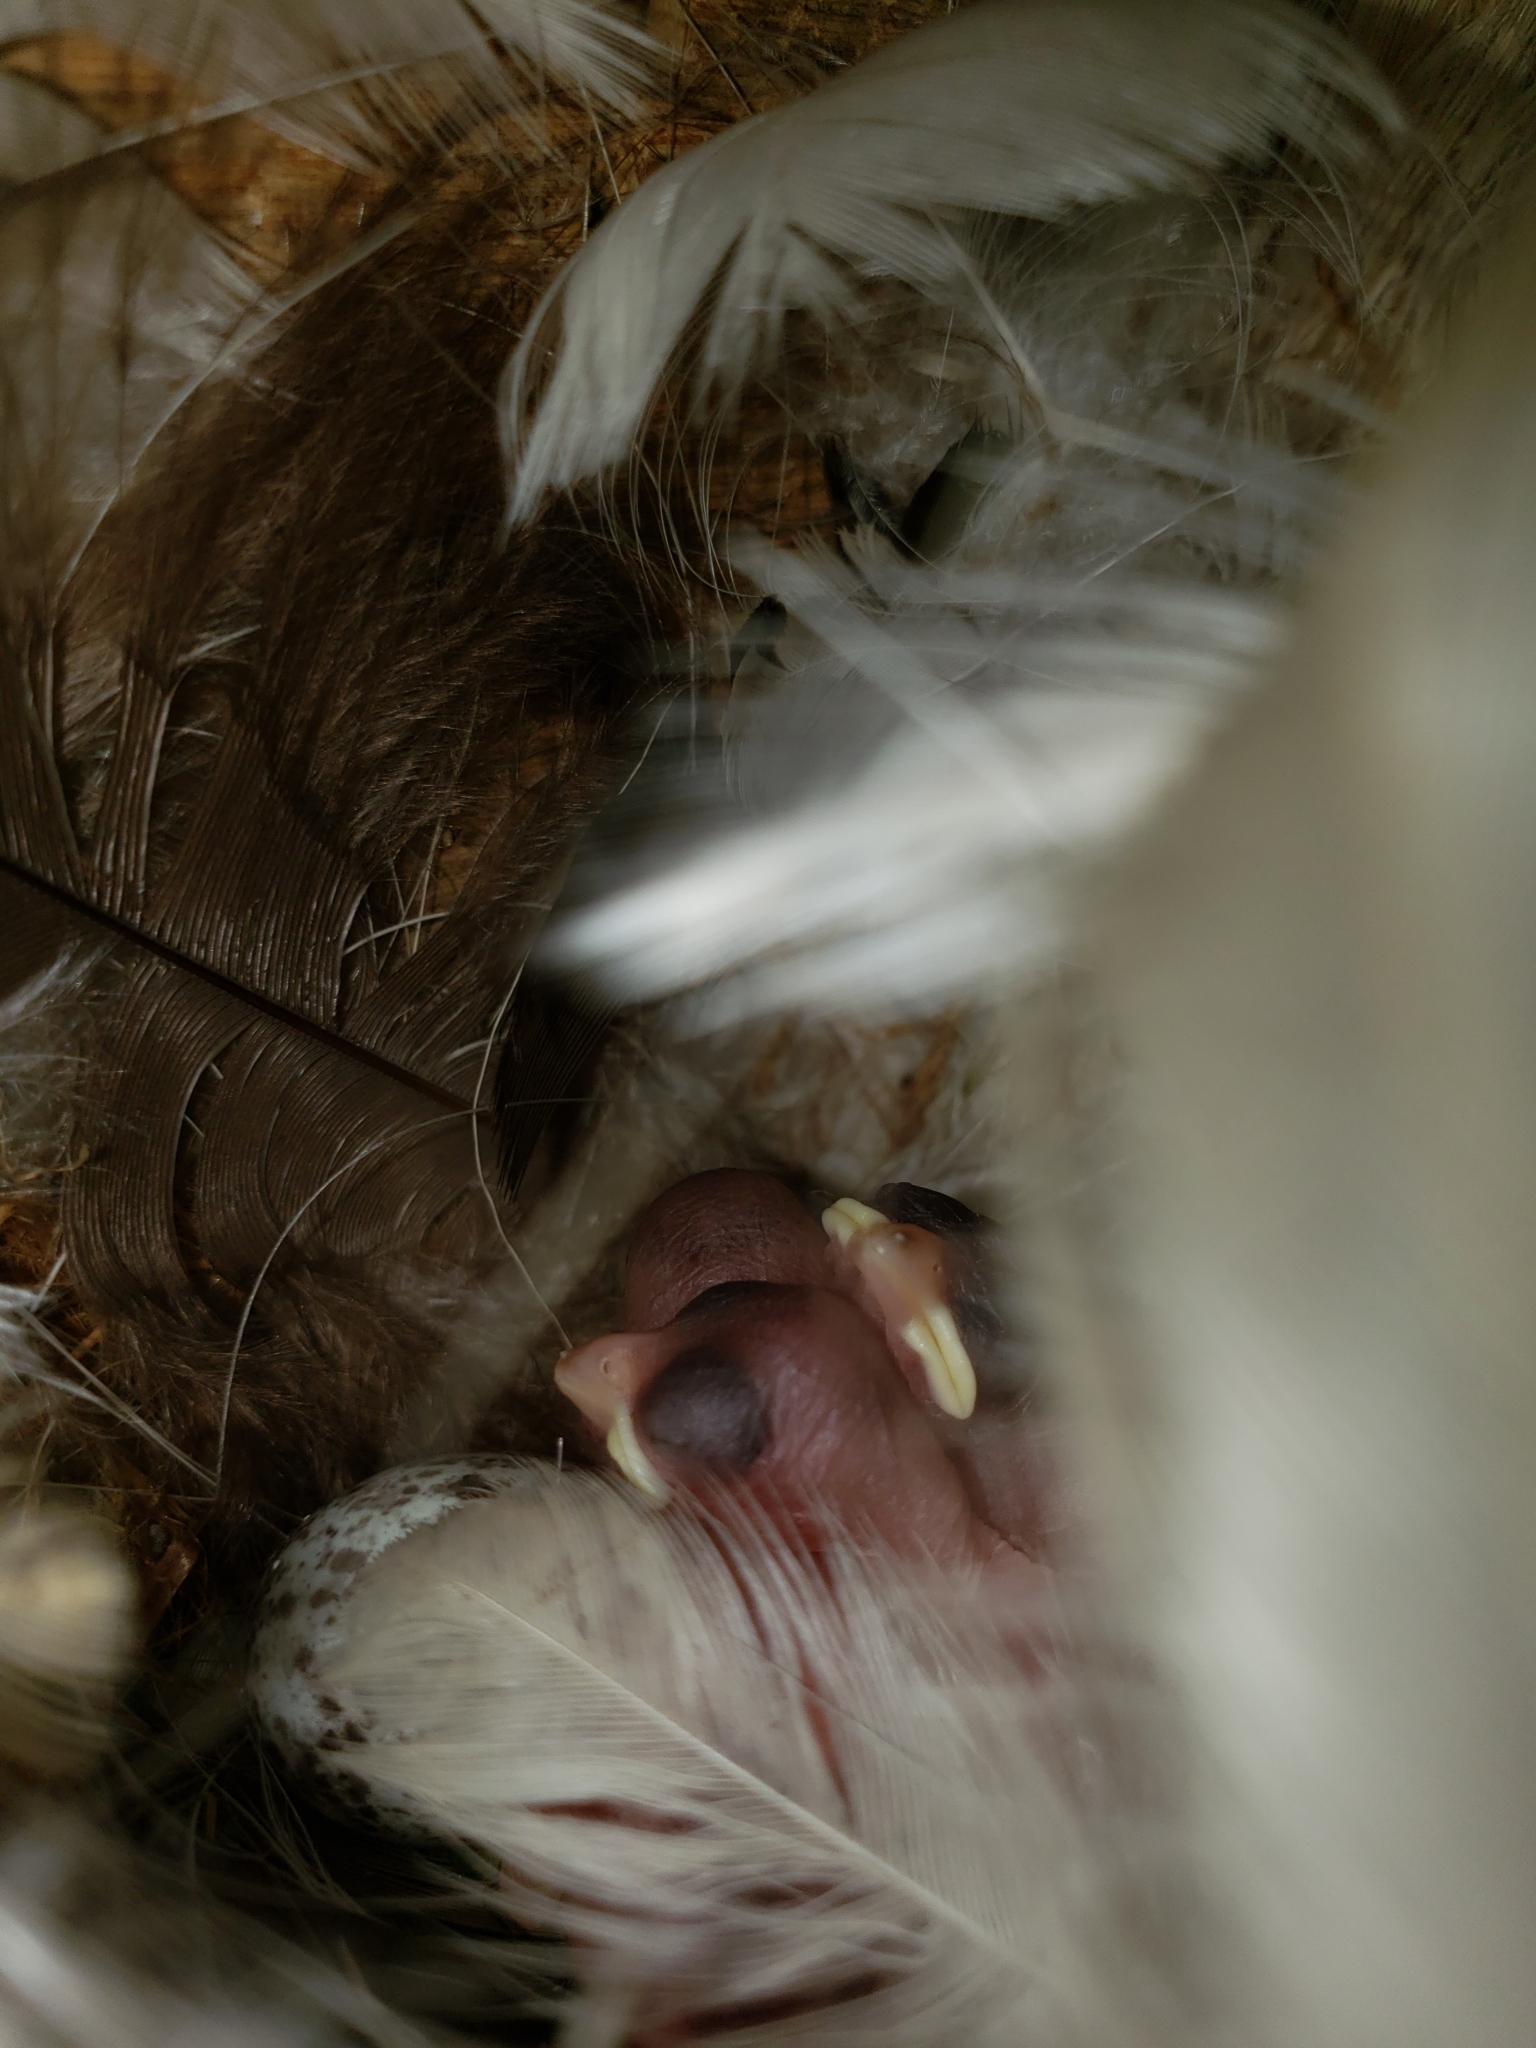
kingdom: Animalia
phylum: Chordata
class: Aves
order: Passeriformes
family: Hirundinidae
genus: Hirundo
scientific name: Hirundo rustica
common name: Barn swallow
